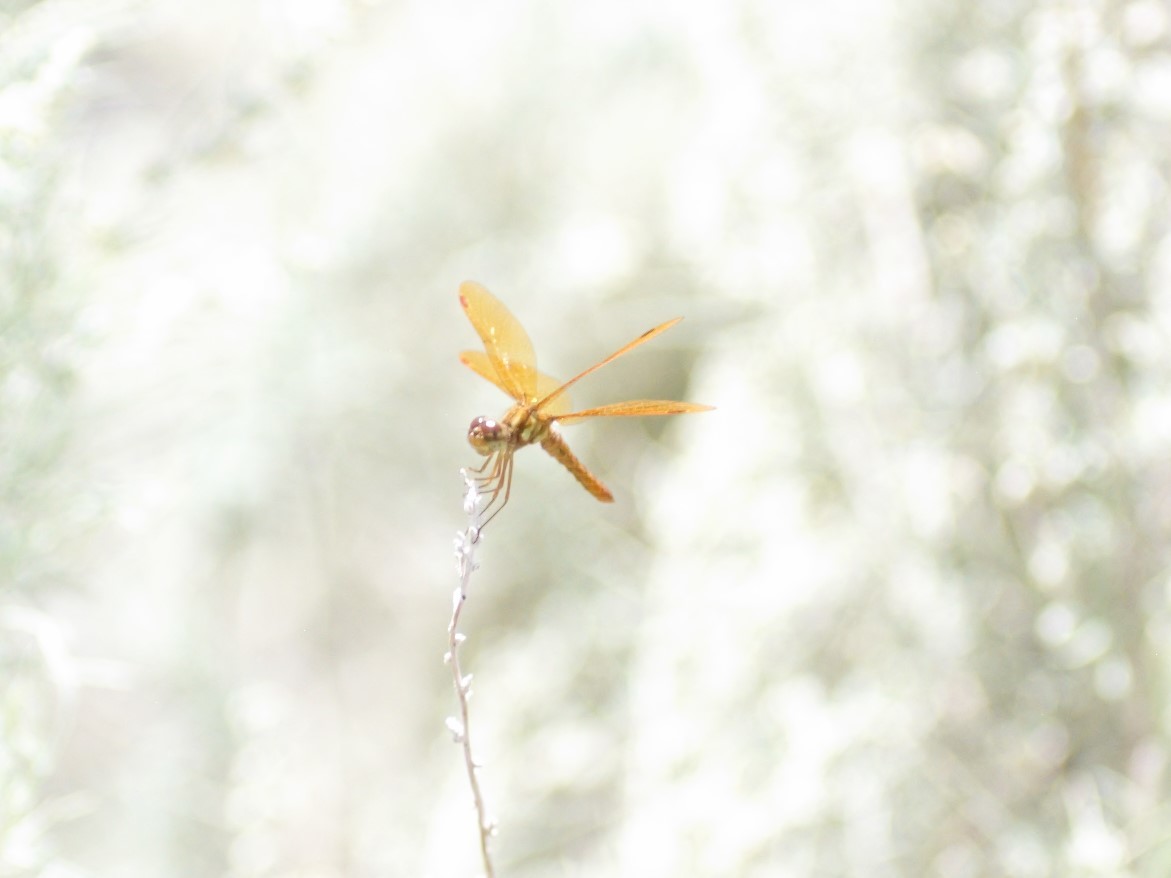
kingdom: Animalia
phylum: Arthropoda
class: Insecta
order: Odonata
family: Libellulidae
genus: Perithemis
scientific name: Perithemis tenera
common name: Eastern amberwing
